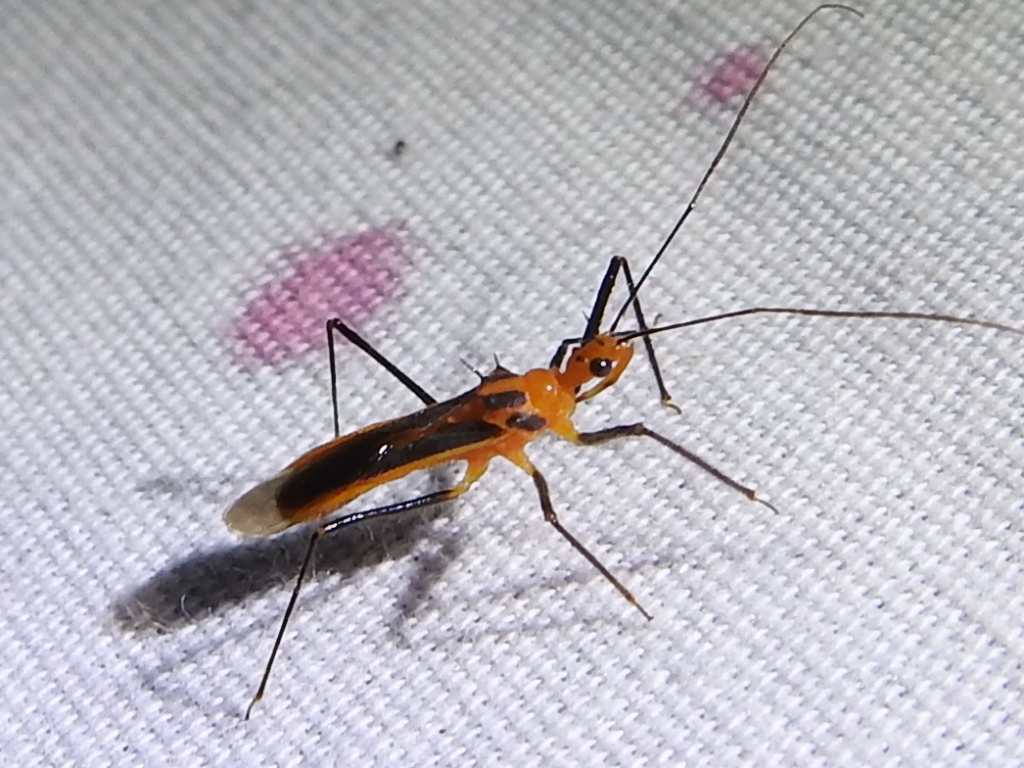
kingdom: Animalia
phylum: Arthropoda
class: Insecta
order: Hemiptera
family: Reduviidae
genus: Repipta
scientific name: Repipta taurus
